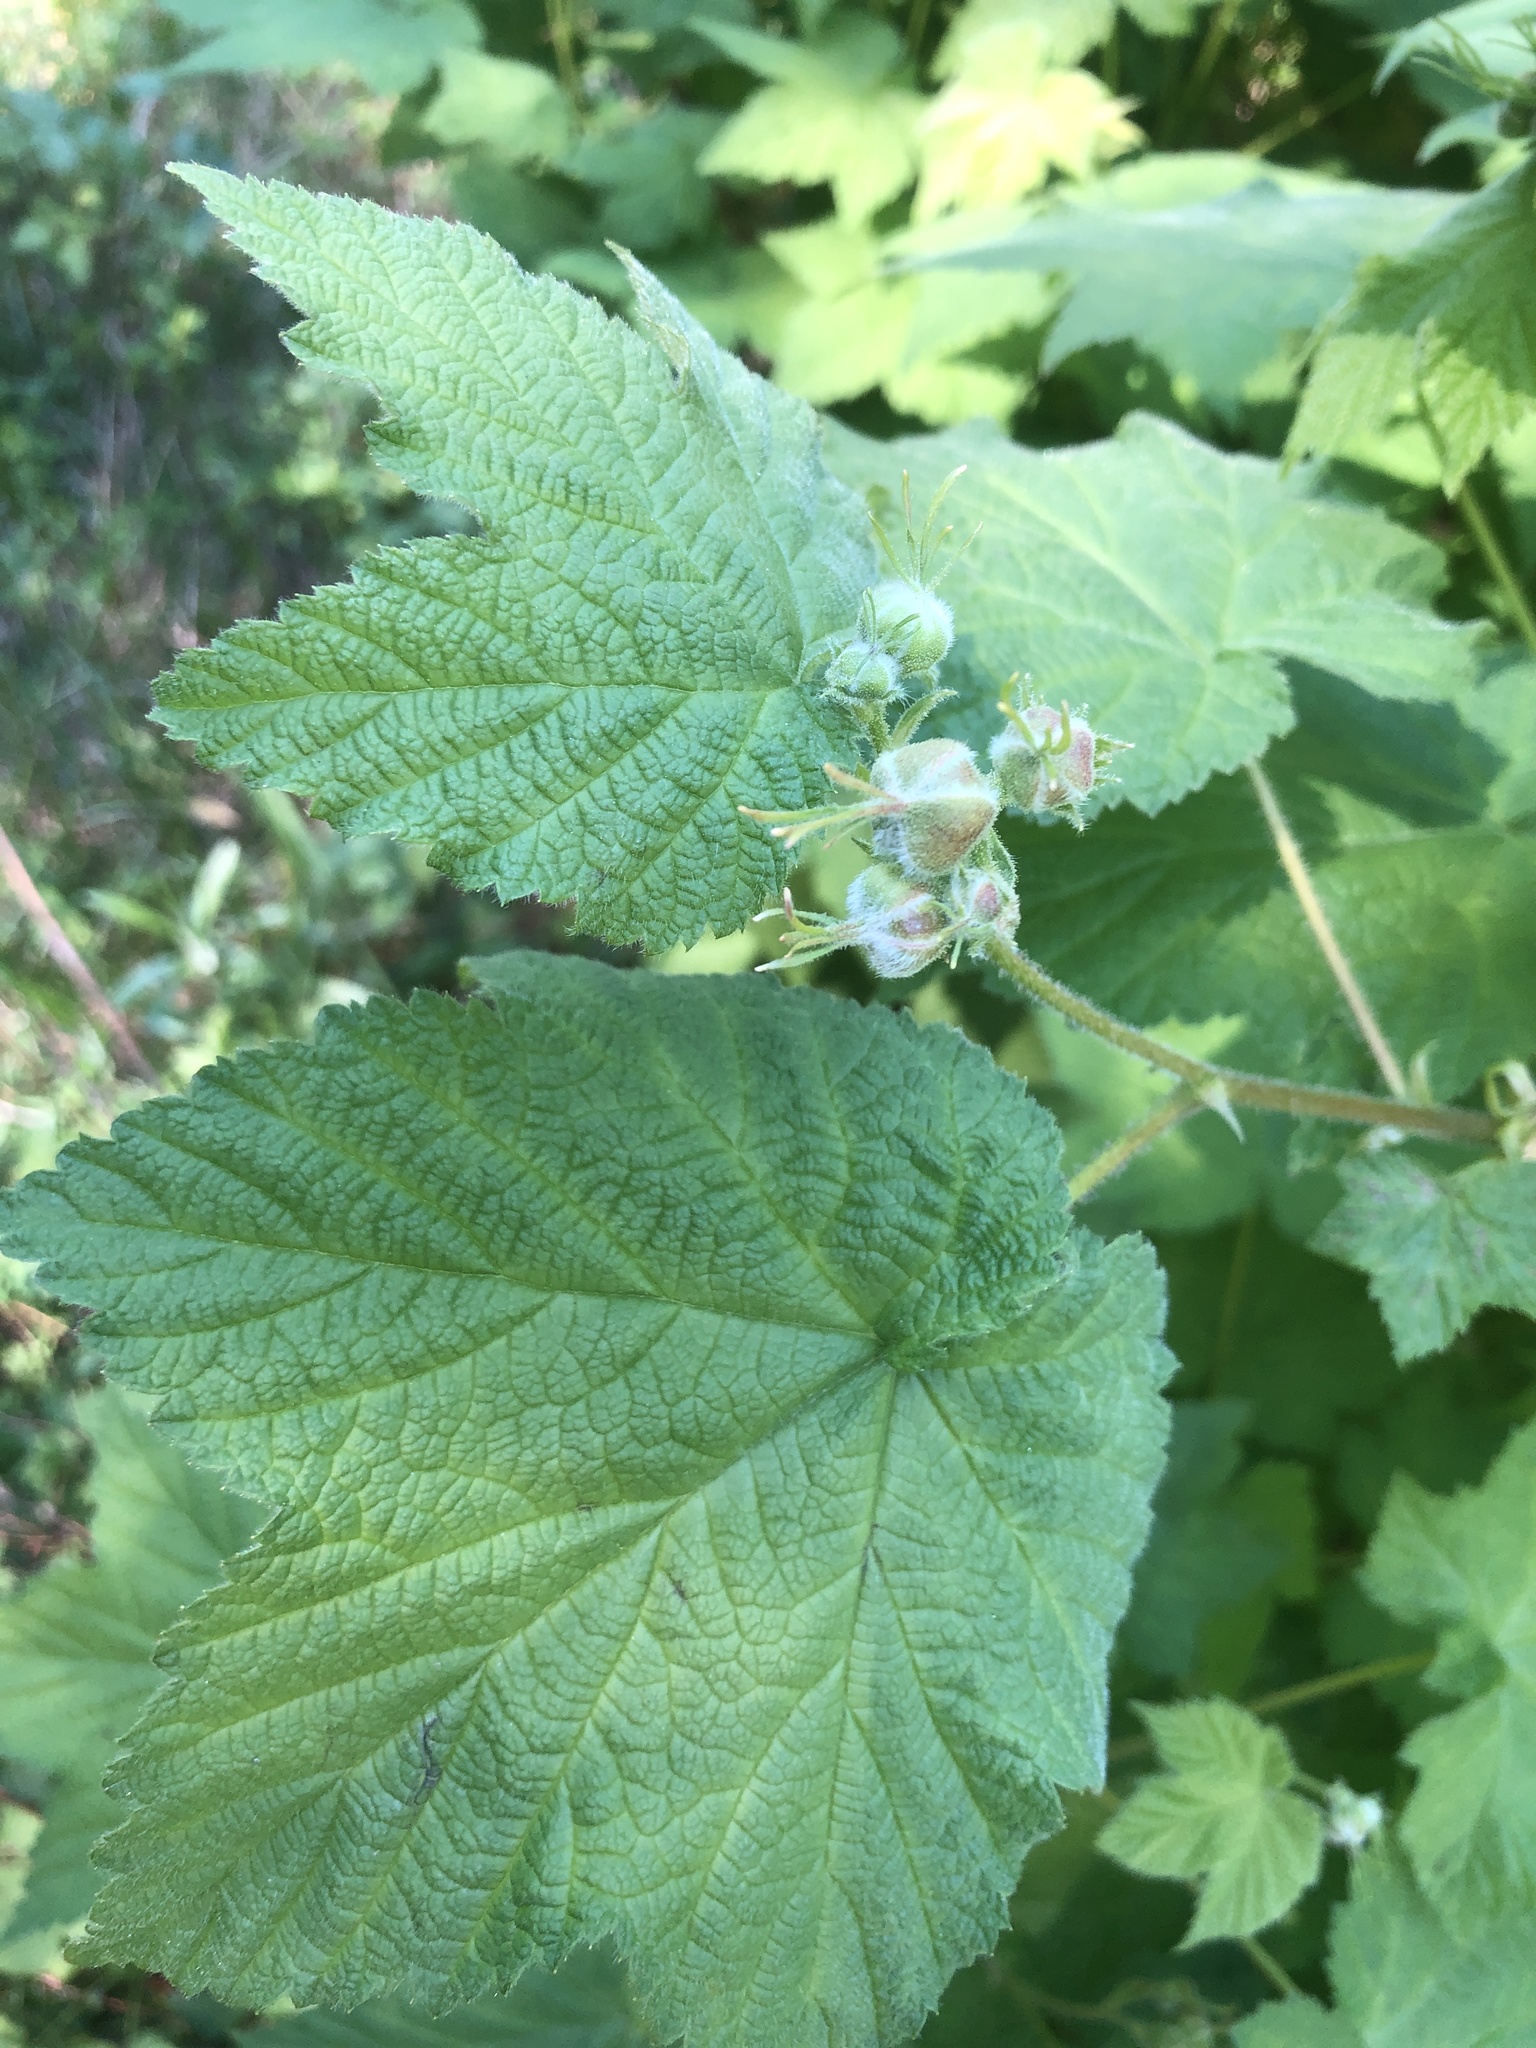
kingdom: Plantae
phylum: Tracheophyta
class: Magnoliopsida
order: Rosales
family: Rosaceae
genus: Rubus
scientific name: Rubus parviflorus
